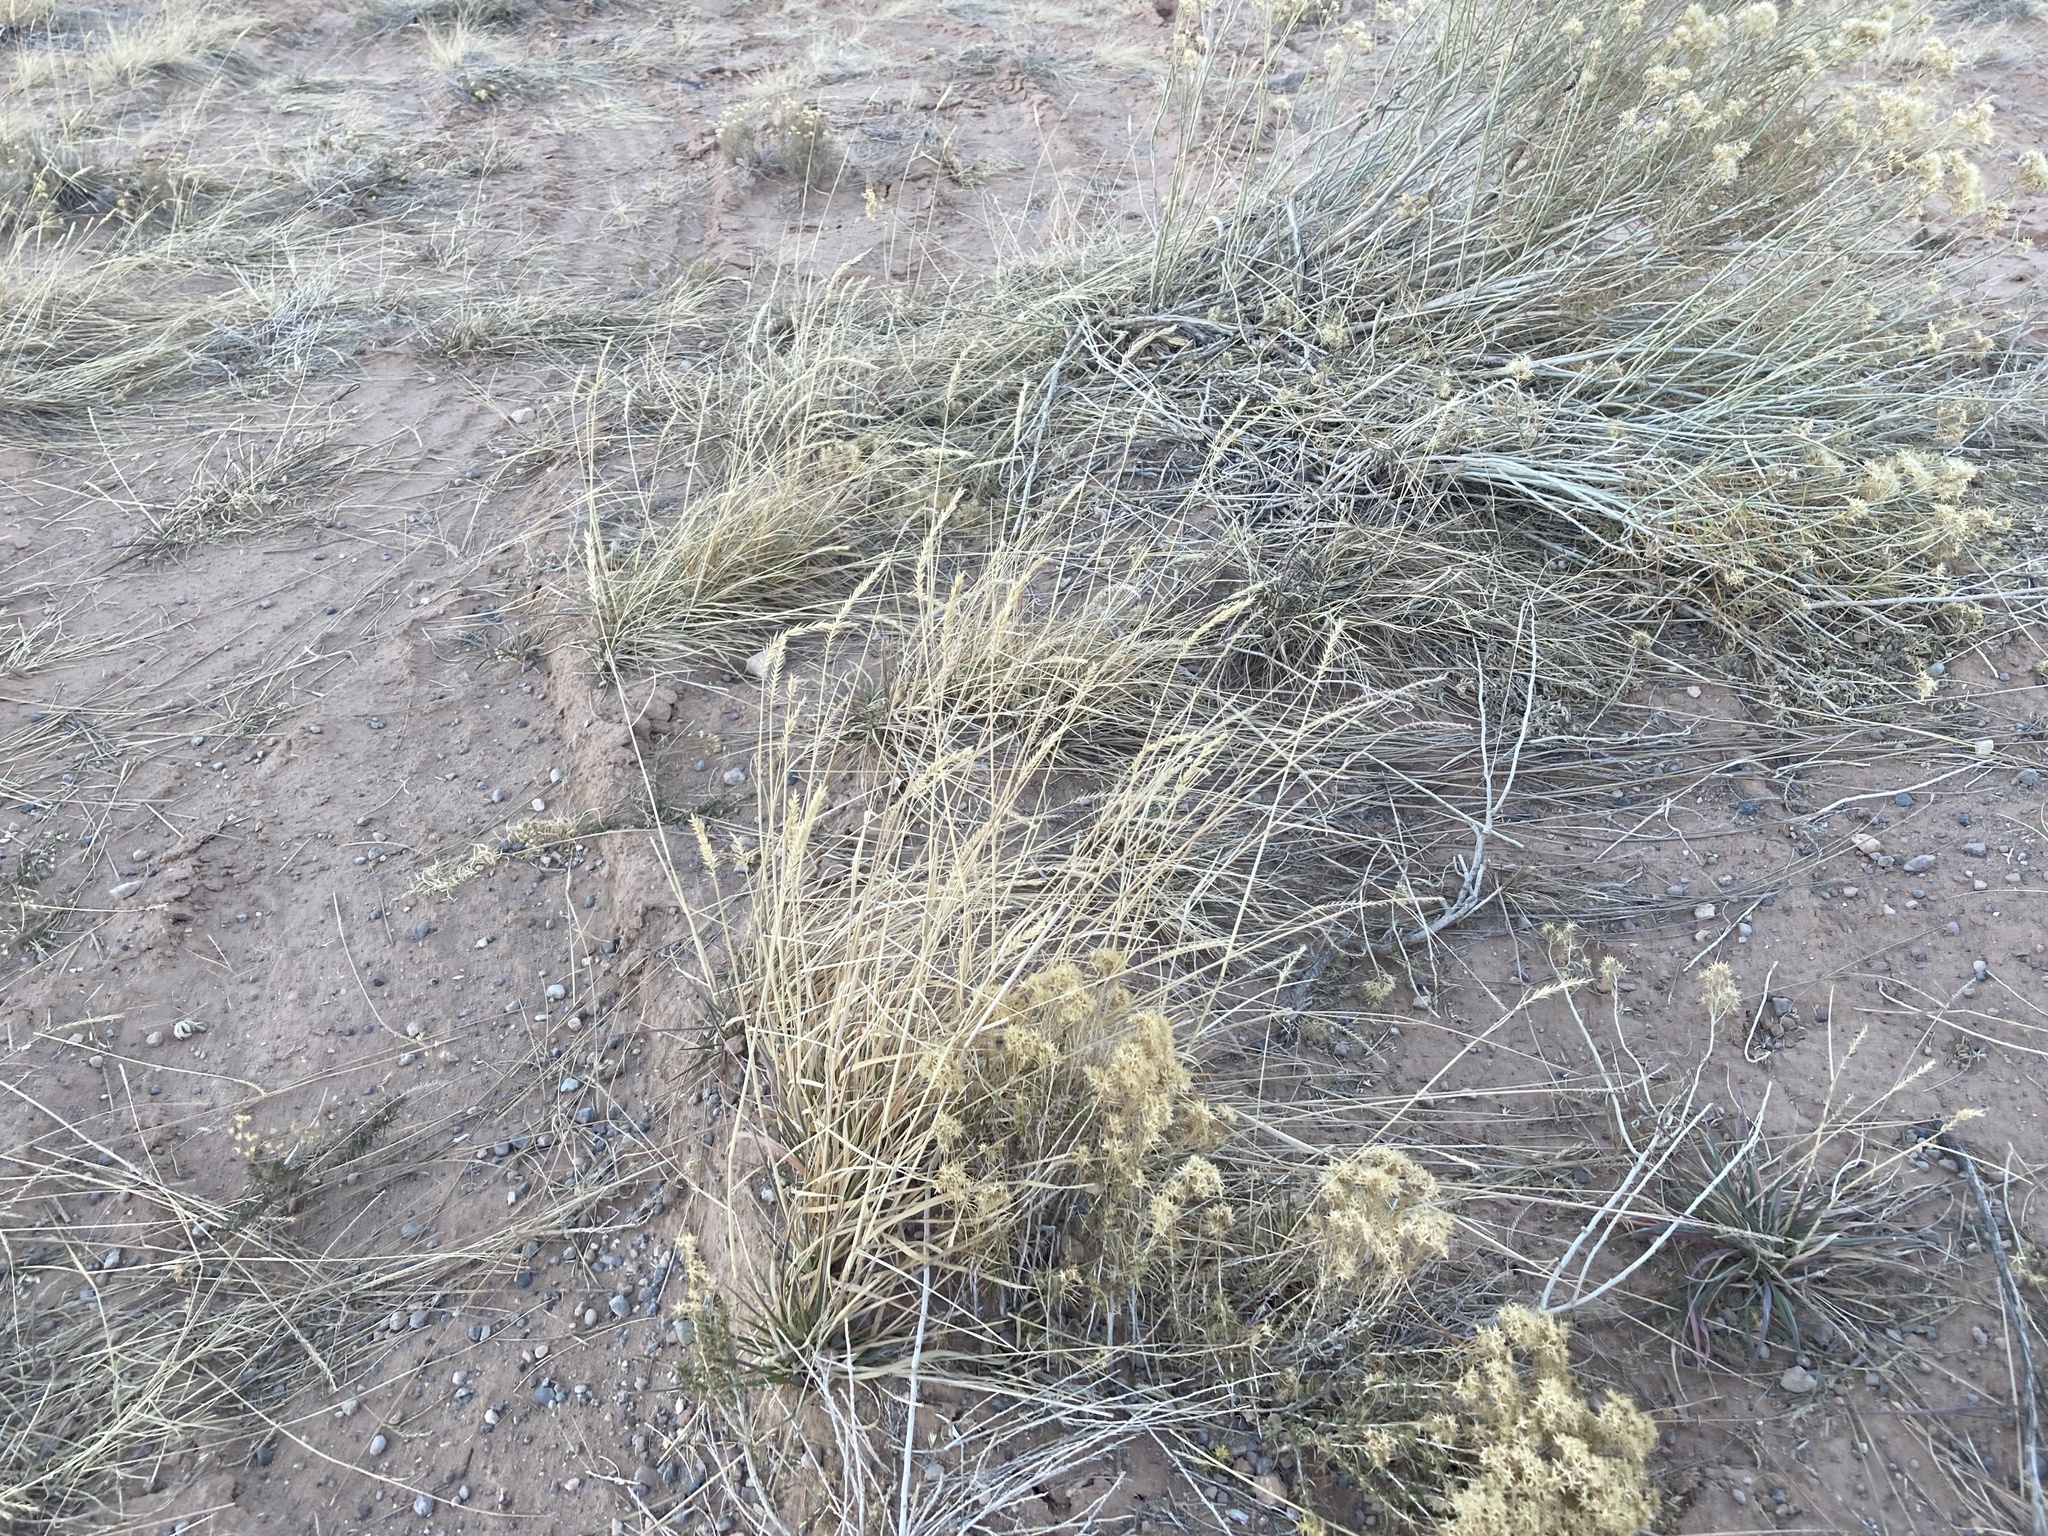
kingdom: Plantae
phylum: Tracheophyta
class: Liliopsida
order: Poales
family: Poaceae
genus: Agropyron
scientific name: Agropyron cristatum
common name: Crested wheatgrass
